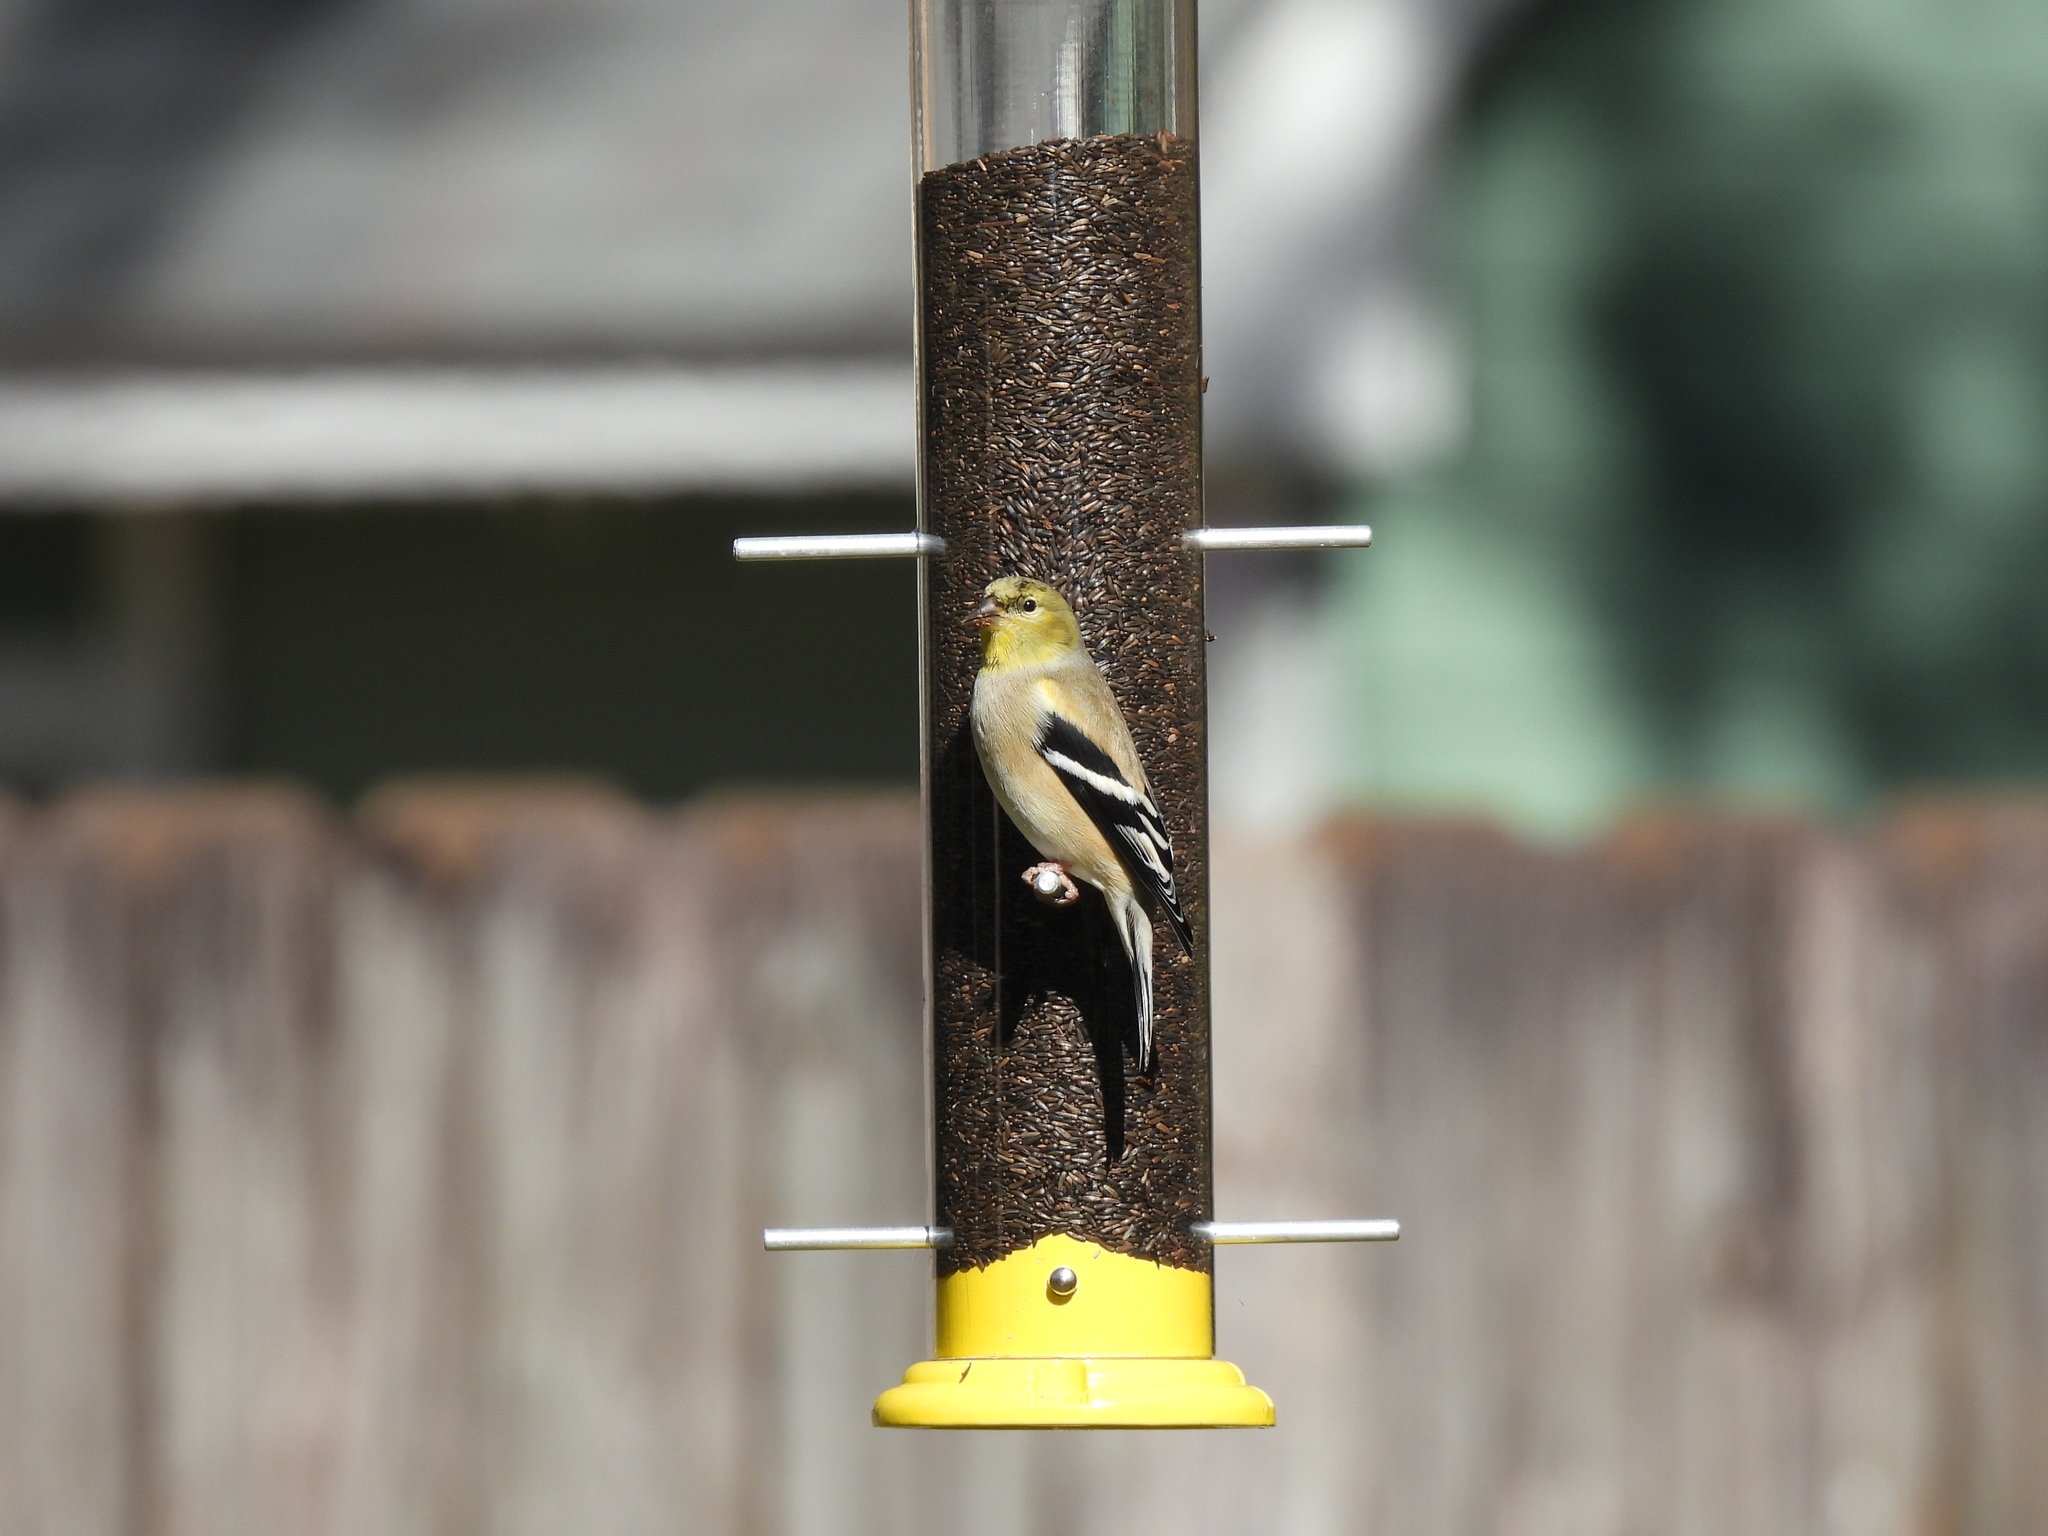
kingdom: Animalia
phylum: Chordata
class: Aves
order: Passeriformes
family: Fringillidae
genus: Spinus
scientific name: Spinus tristis
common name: American goldfinch
